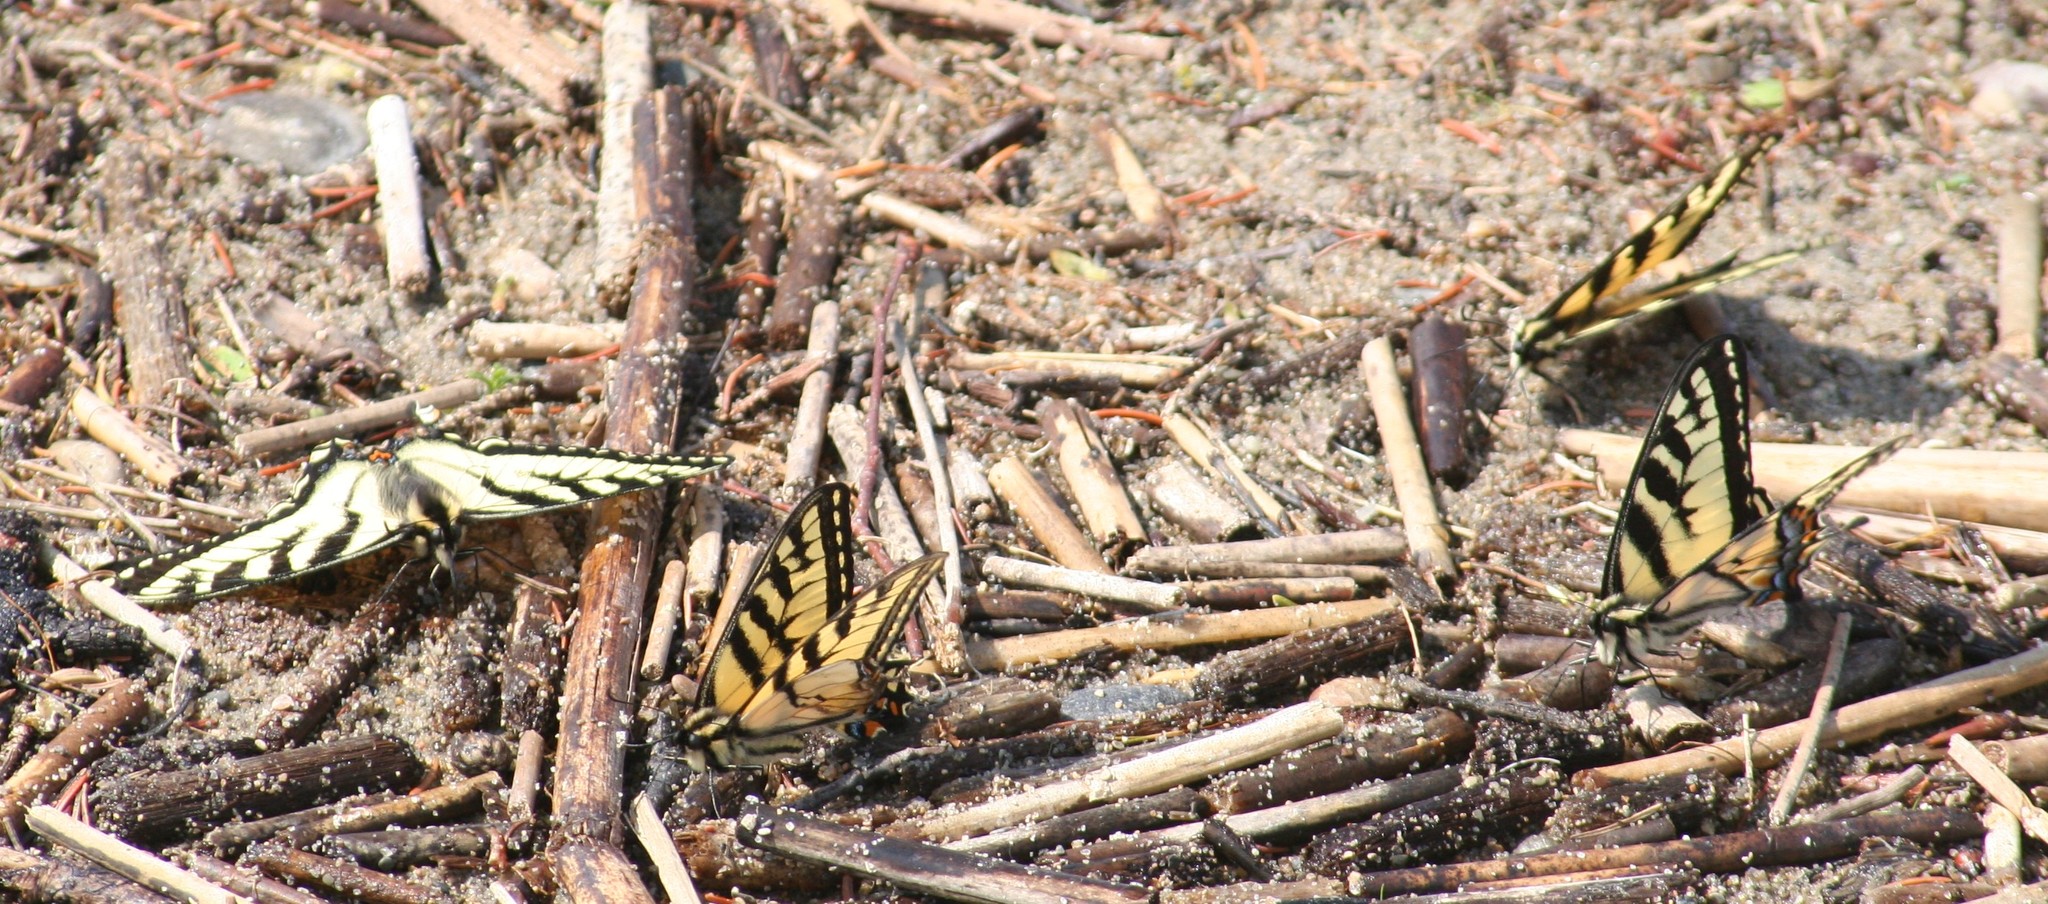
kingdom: Animalia
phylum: Arthropoda
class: Insecta
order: Lepidoptera
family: Papilionidae
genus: Papilio
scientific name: Papilio canadensis
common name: Canadian tiger swallowtail
